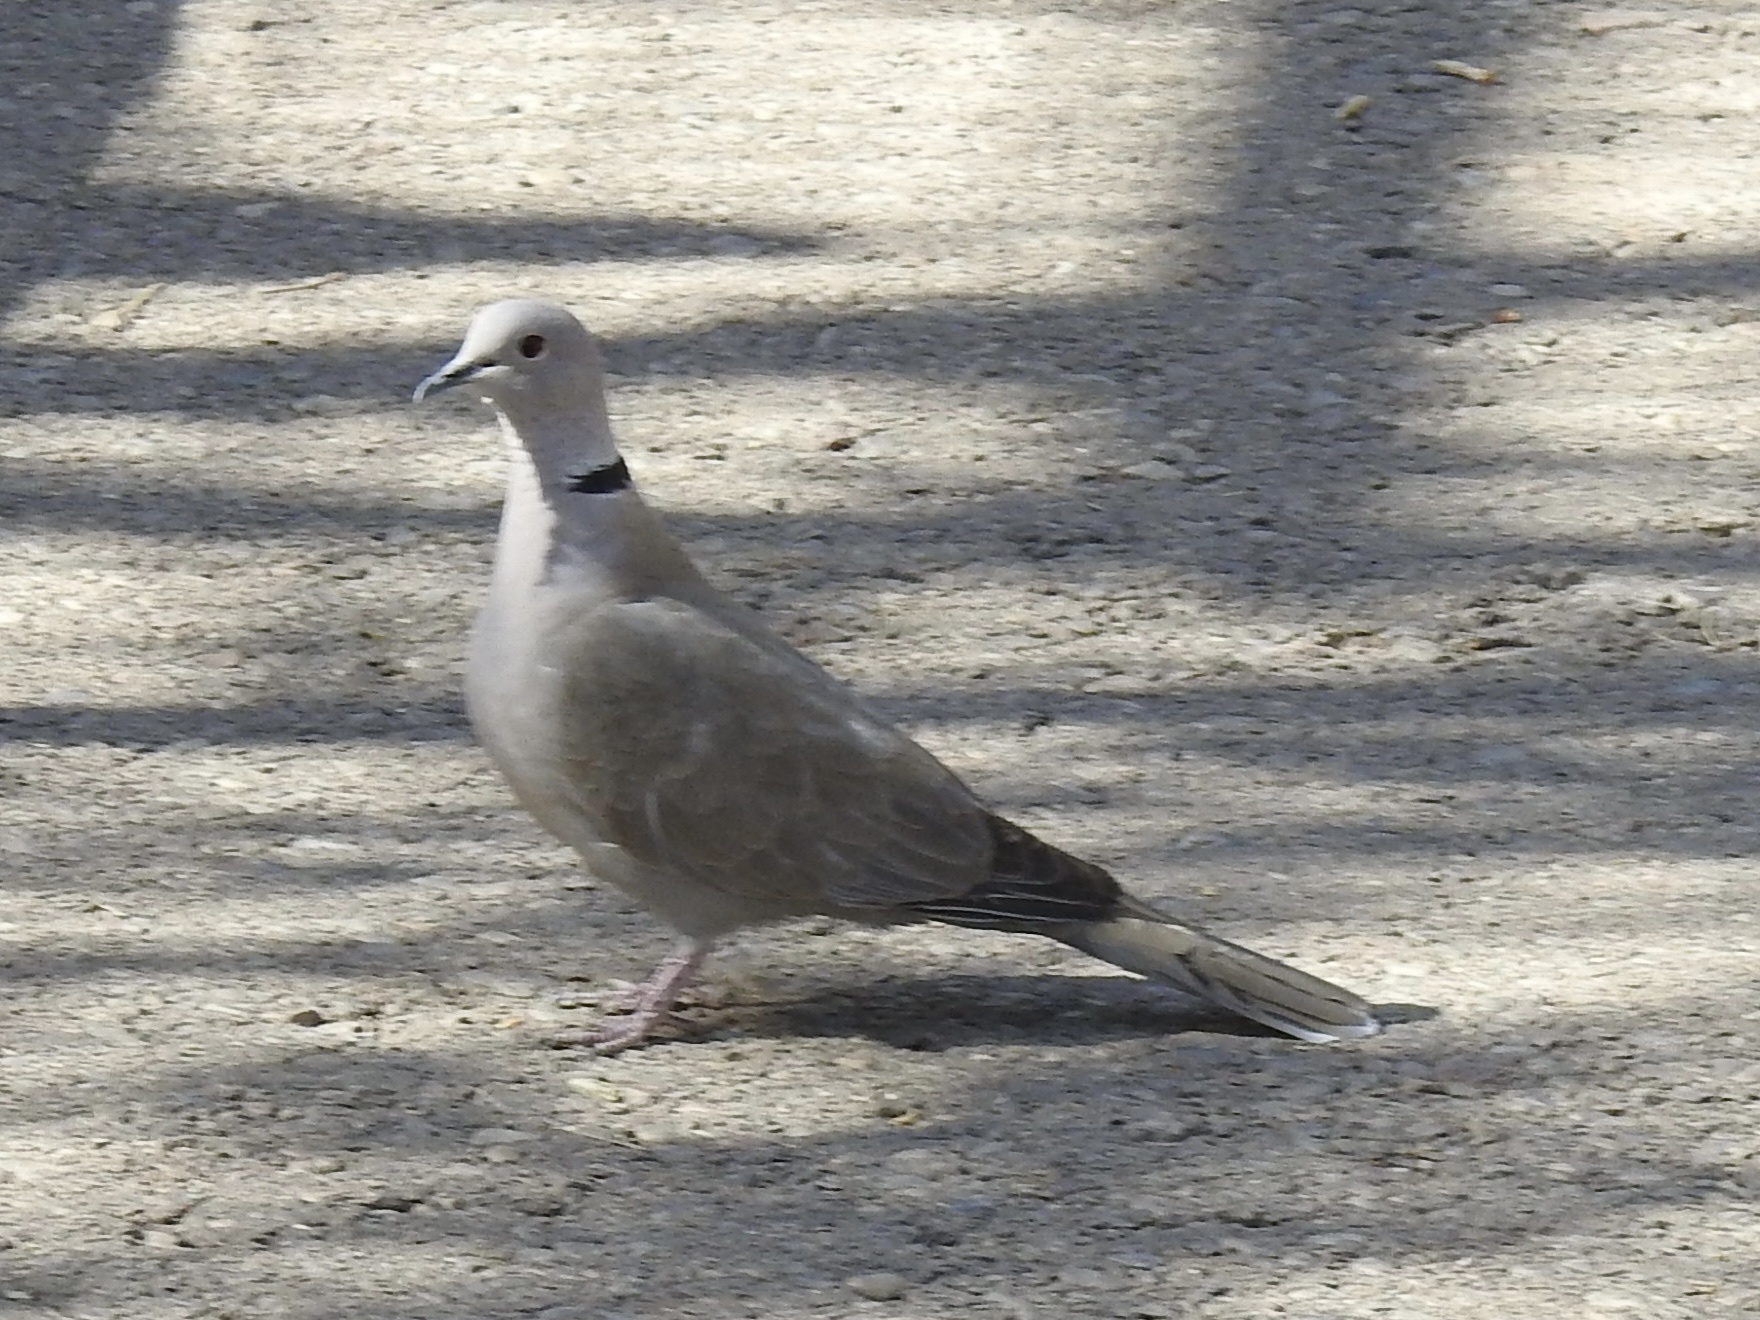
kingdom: Animalia
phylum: Chordata
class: Aves
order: Columbiformes
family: Columbidae
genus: Streptopelia
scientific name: Streptopelia decaocto
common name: Eurasian collared dove
